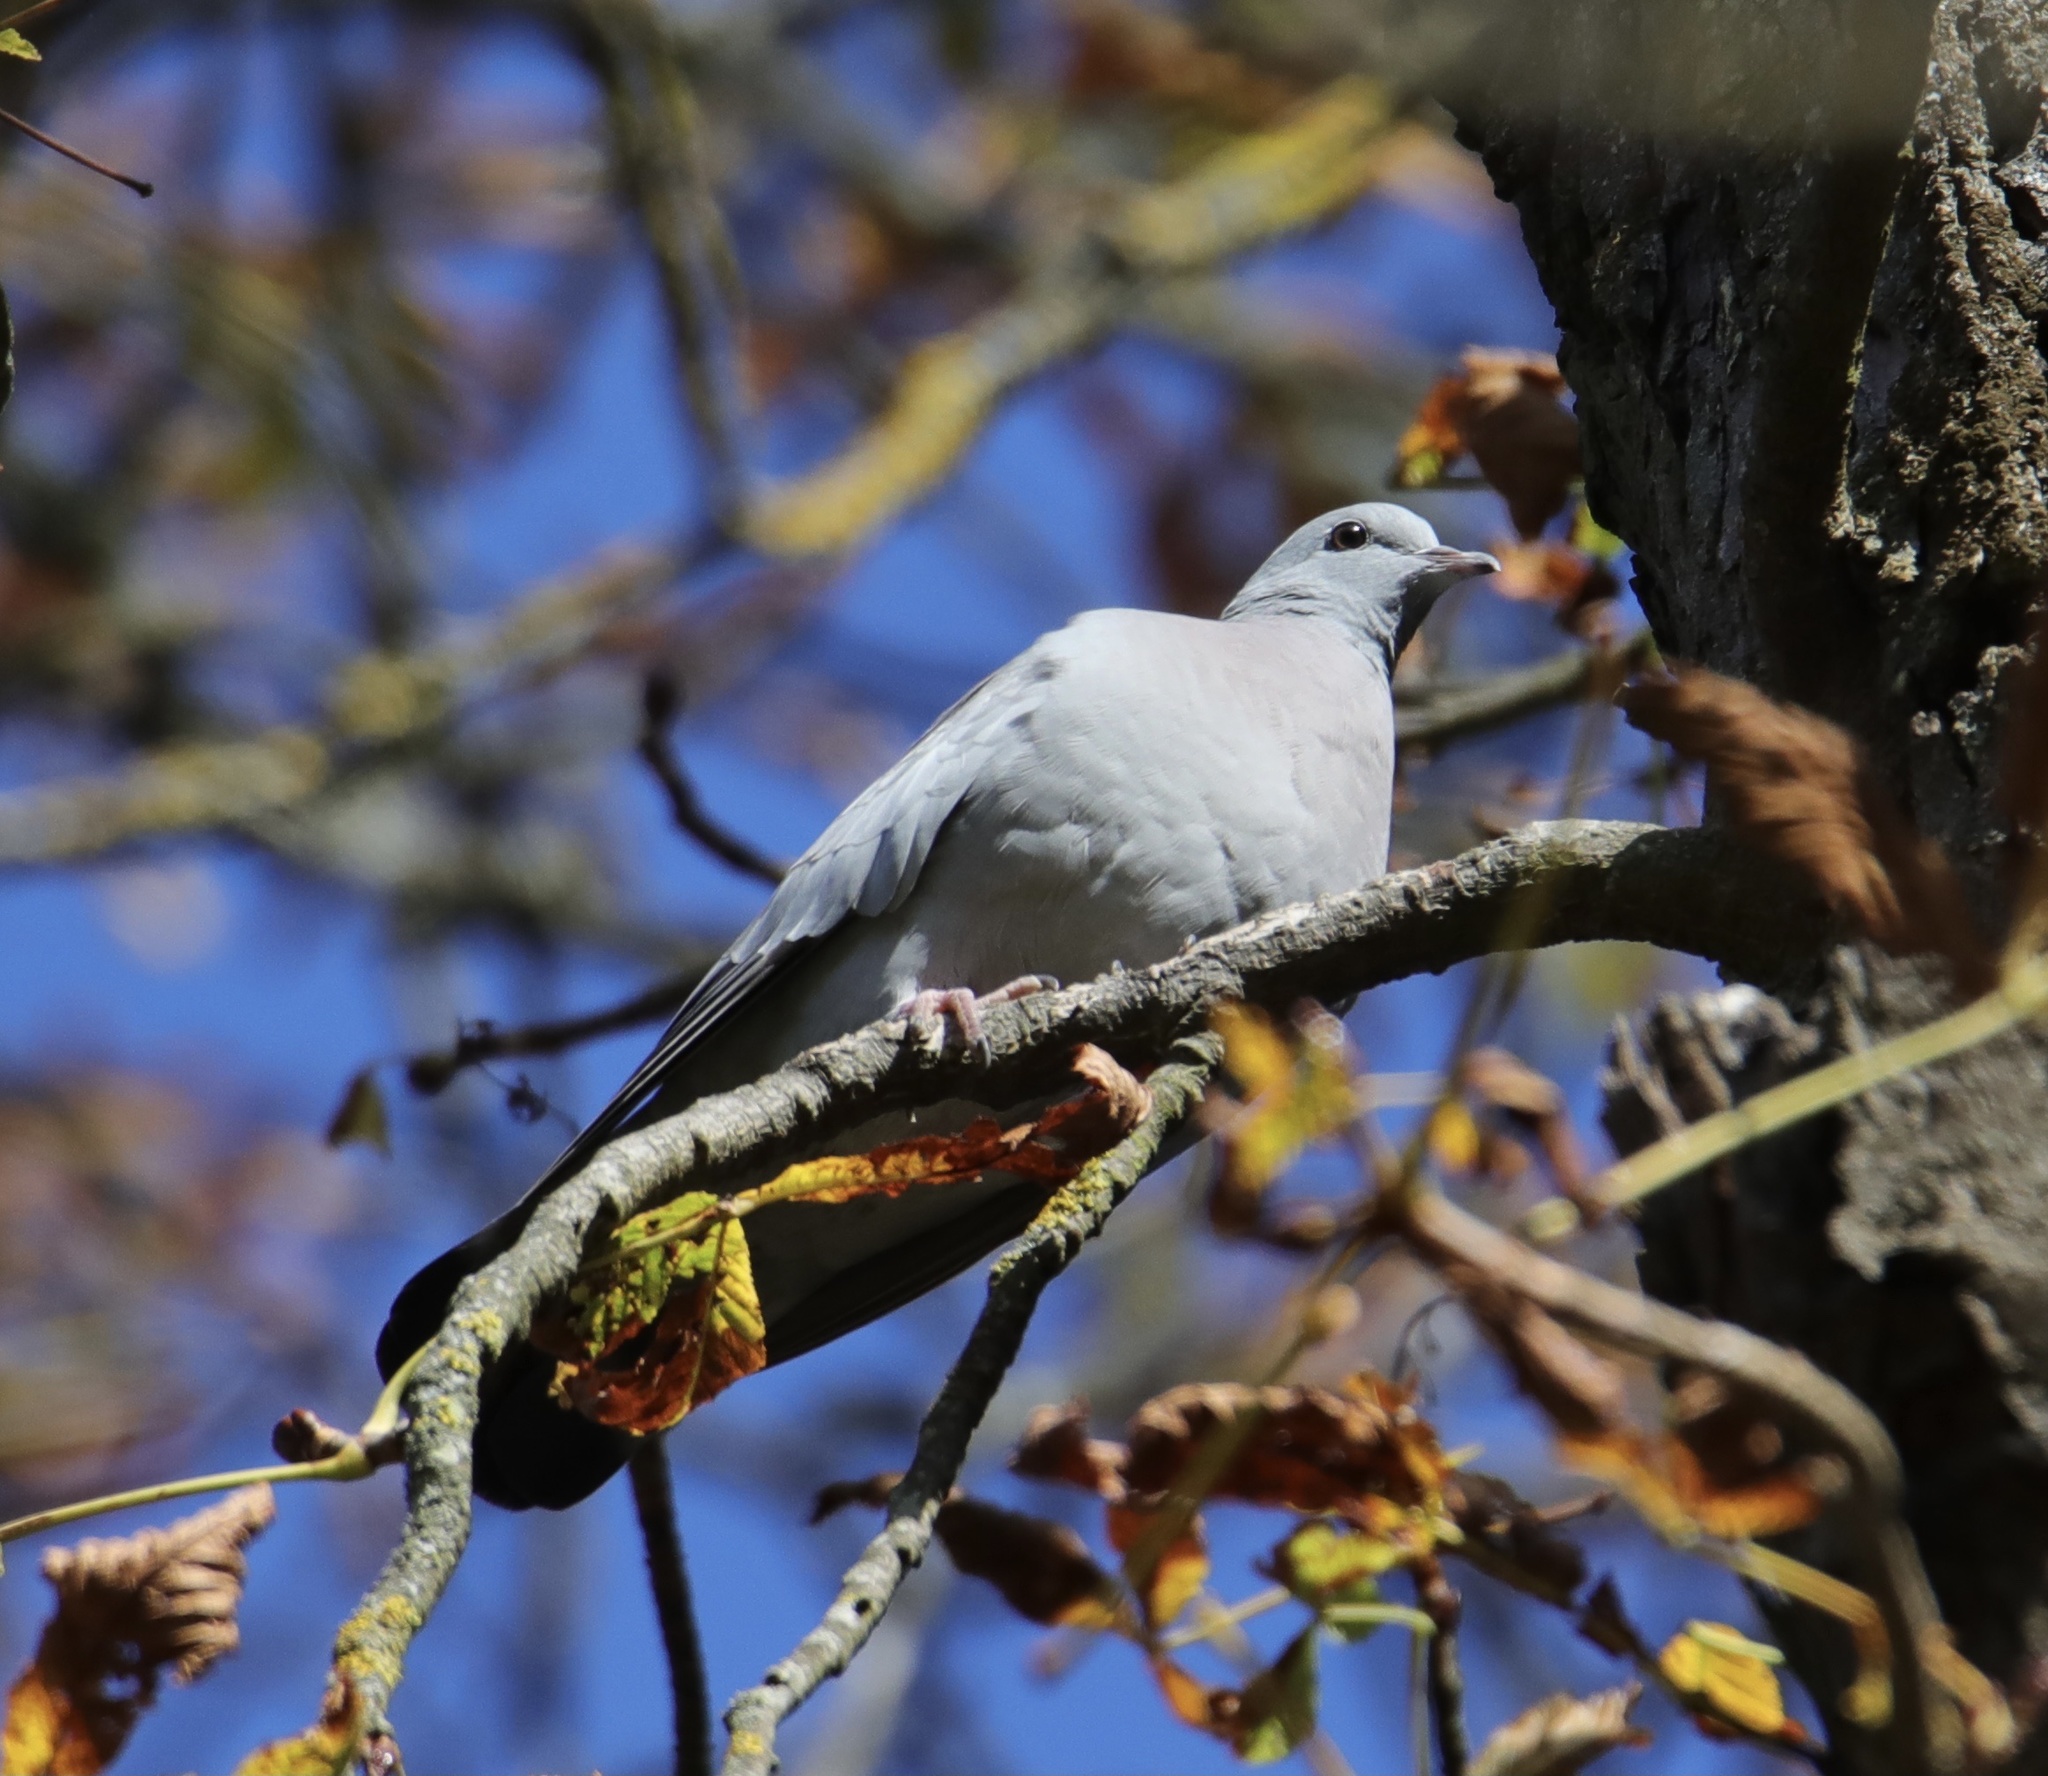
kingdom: Animalia
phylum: Chordata
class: Aves
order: Columbiformes
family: Columbidae
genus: Columba
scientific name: Columba oenas
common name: Stock dove
